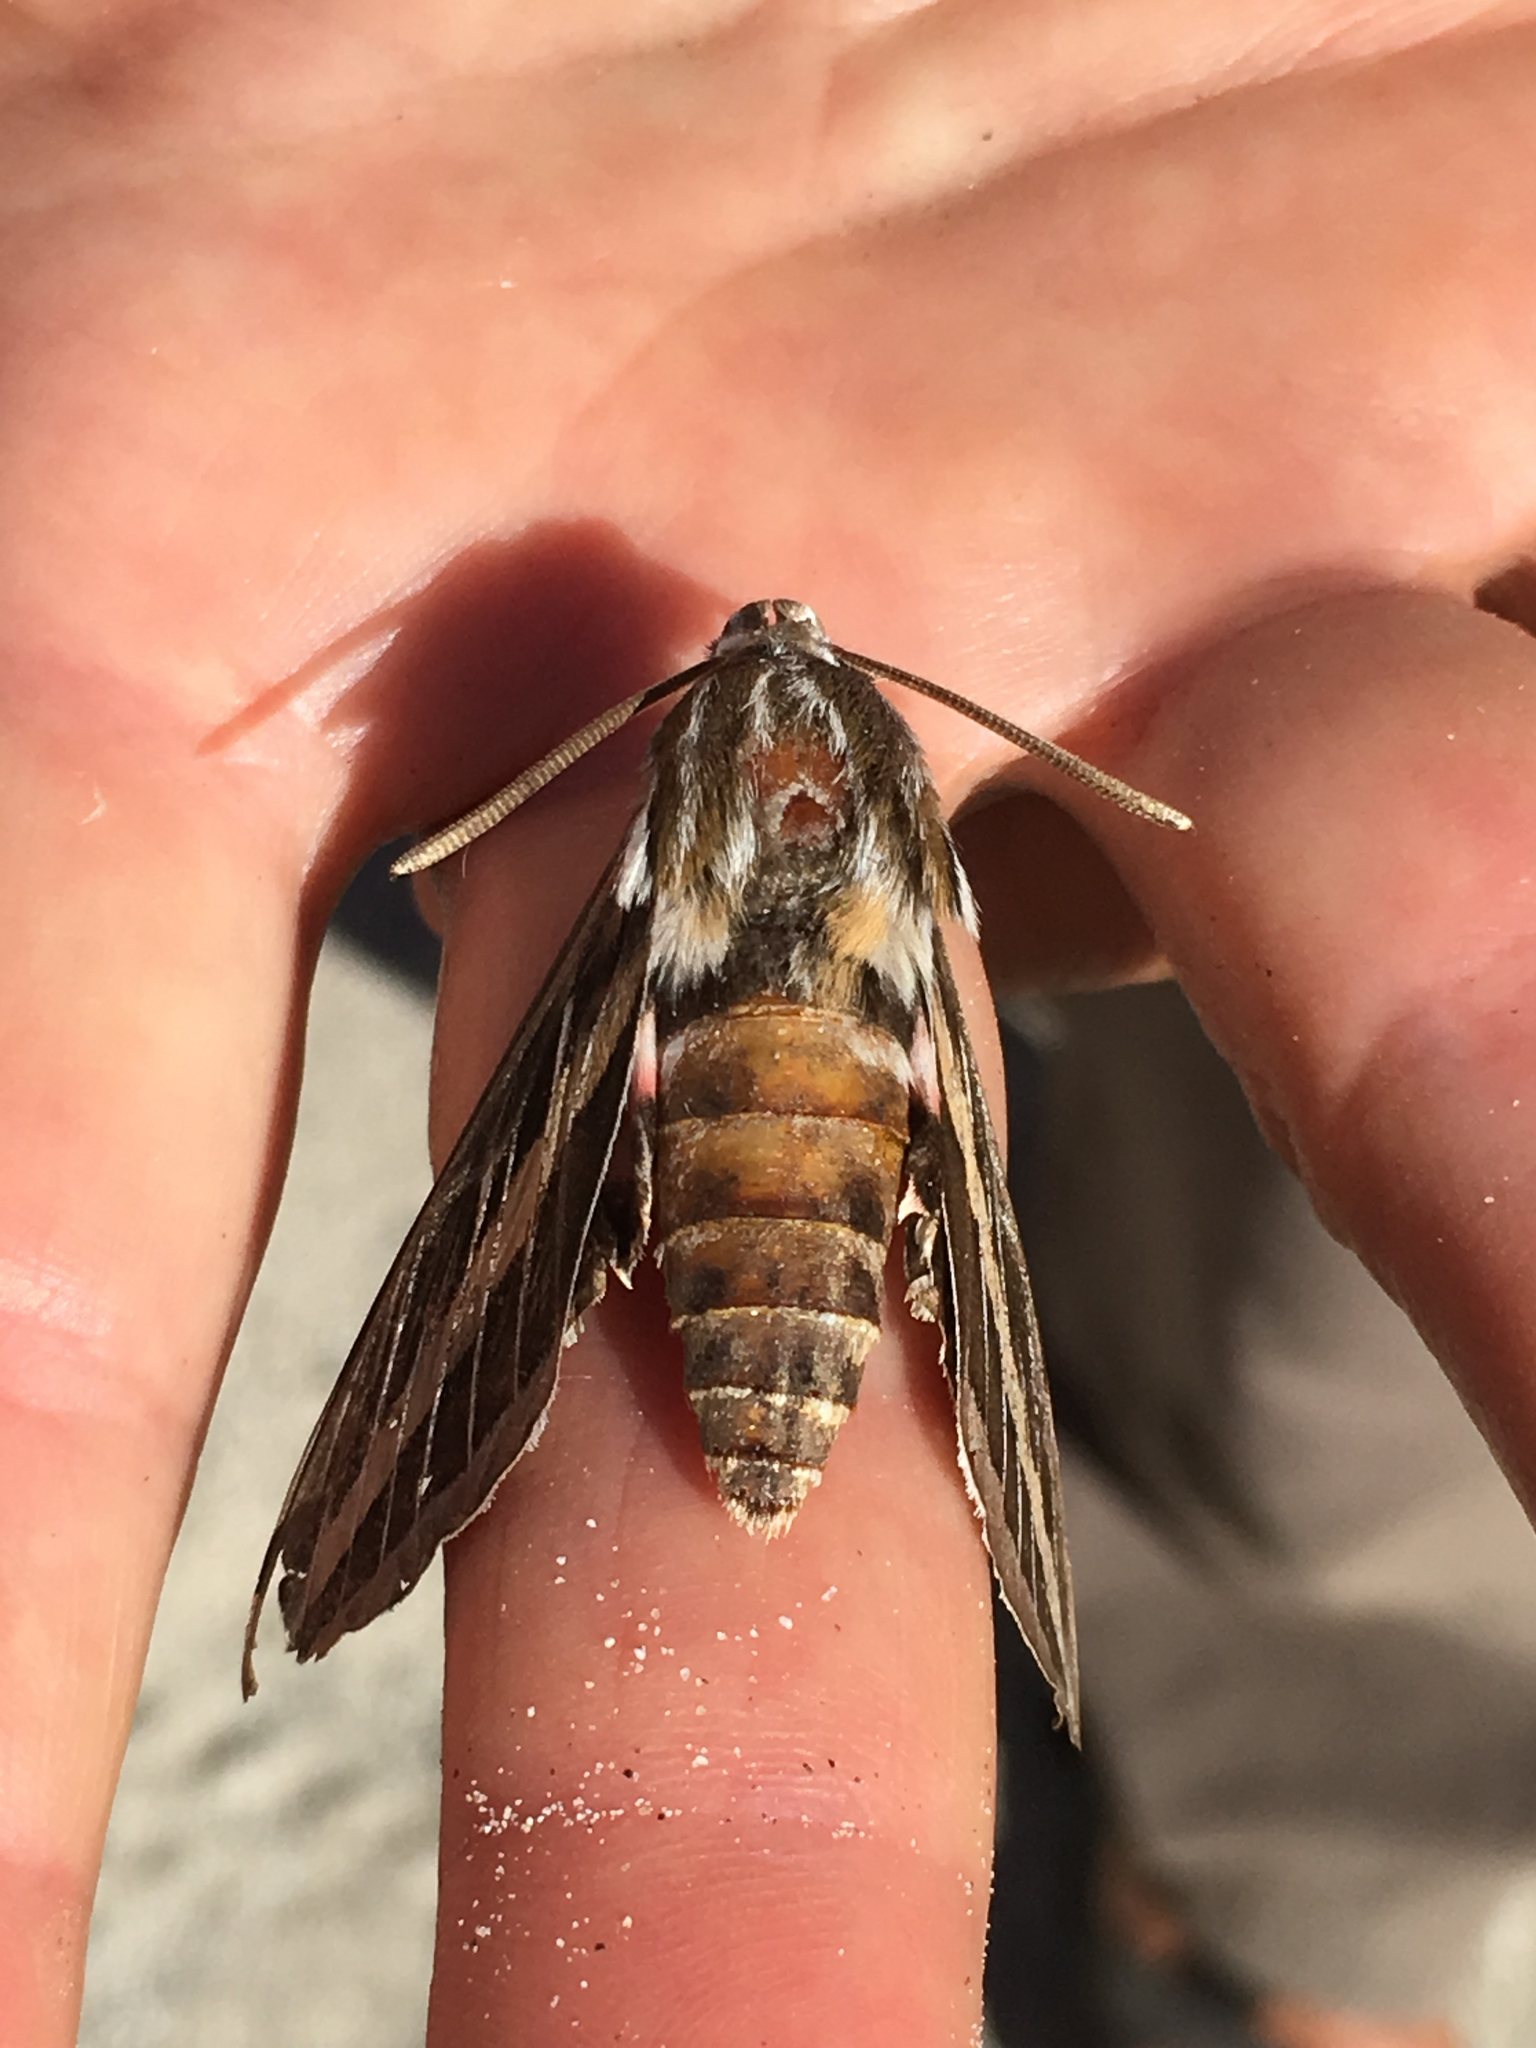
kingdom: Animalia
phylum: Arthropoda
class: Insecta
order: Lepidoptera
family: Sphingidae
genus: Hyles
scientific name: Hyles lineata
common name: White-lined sphinx
